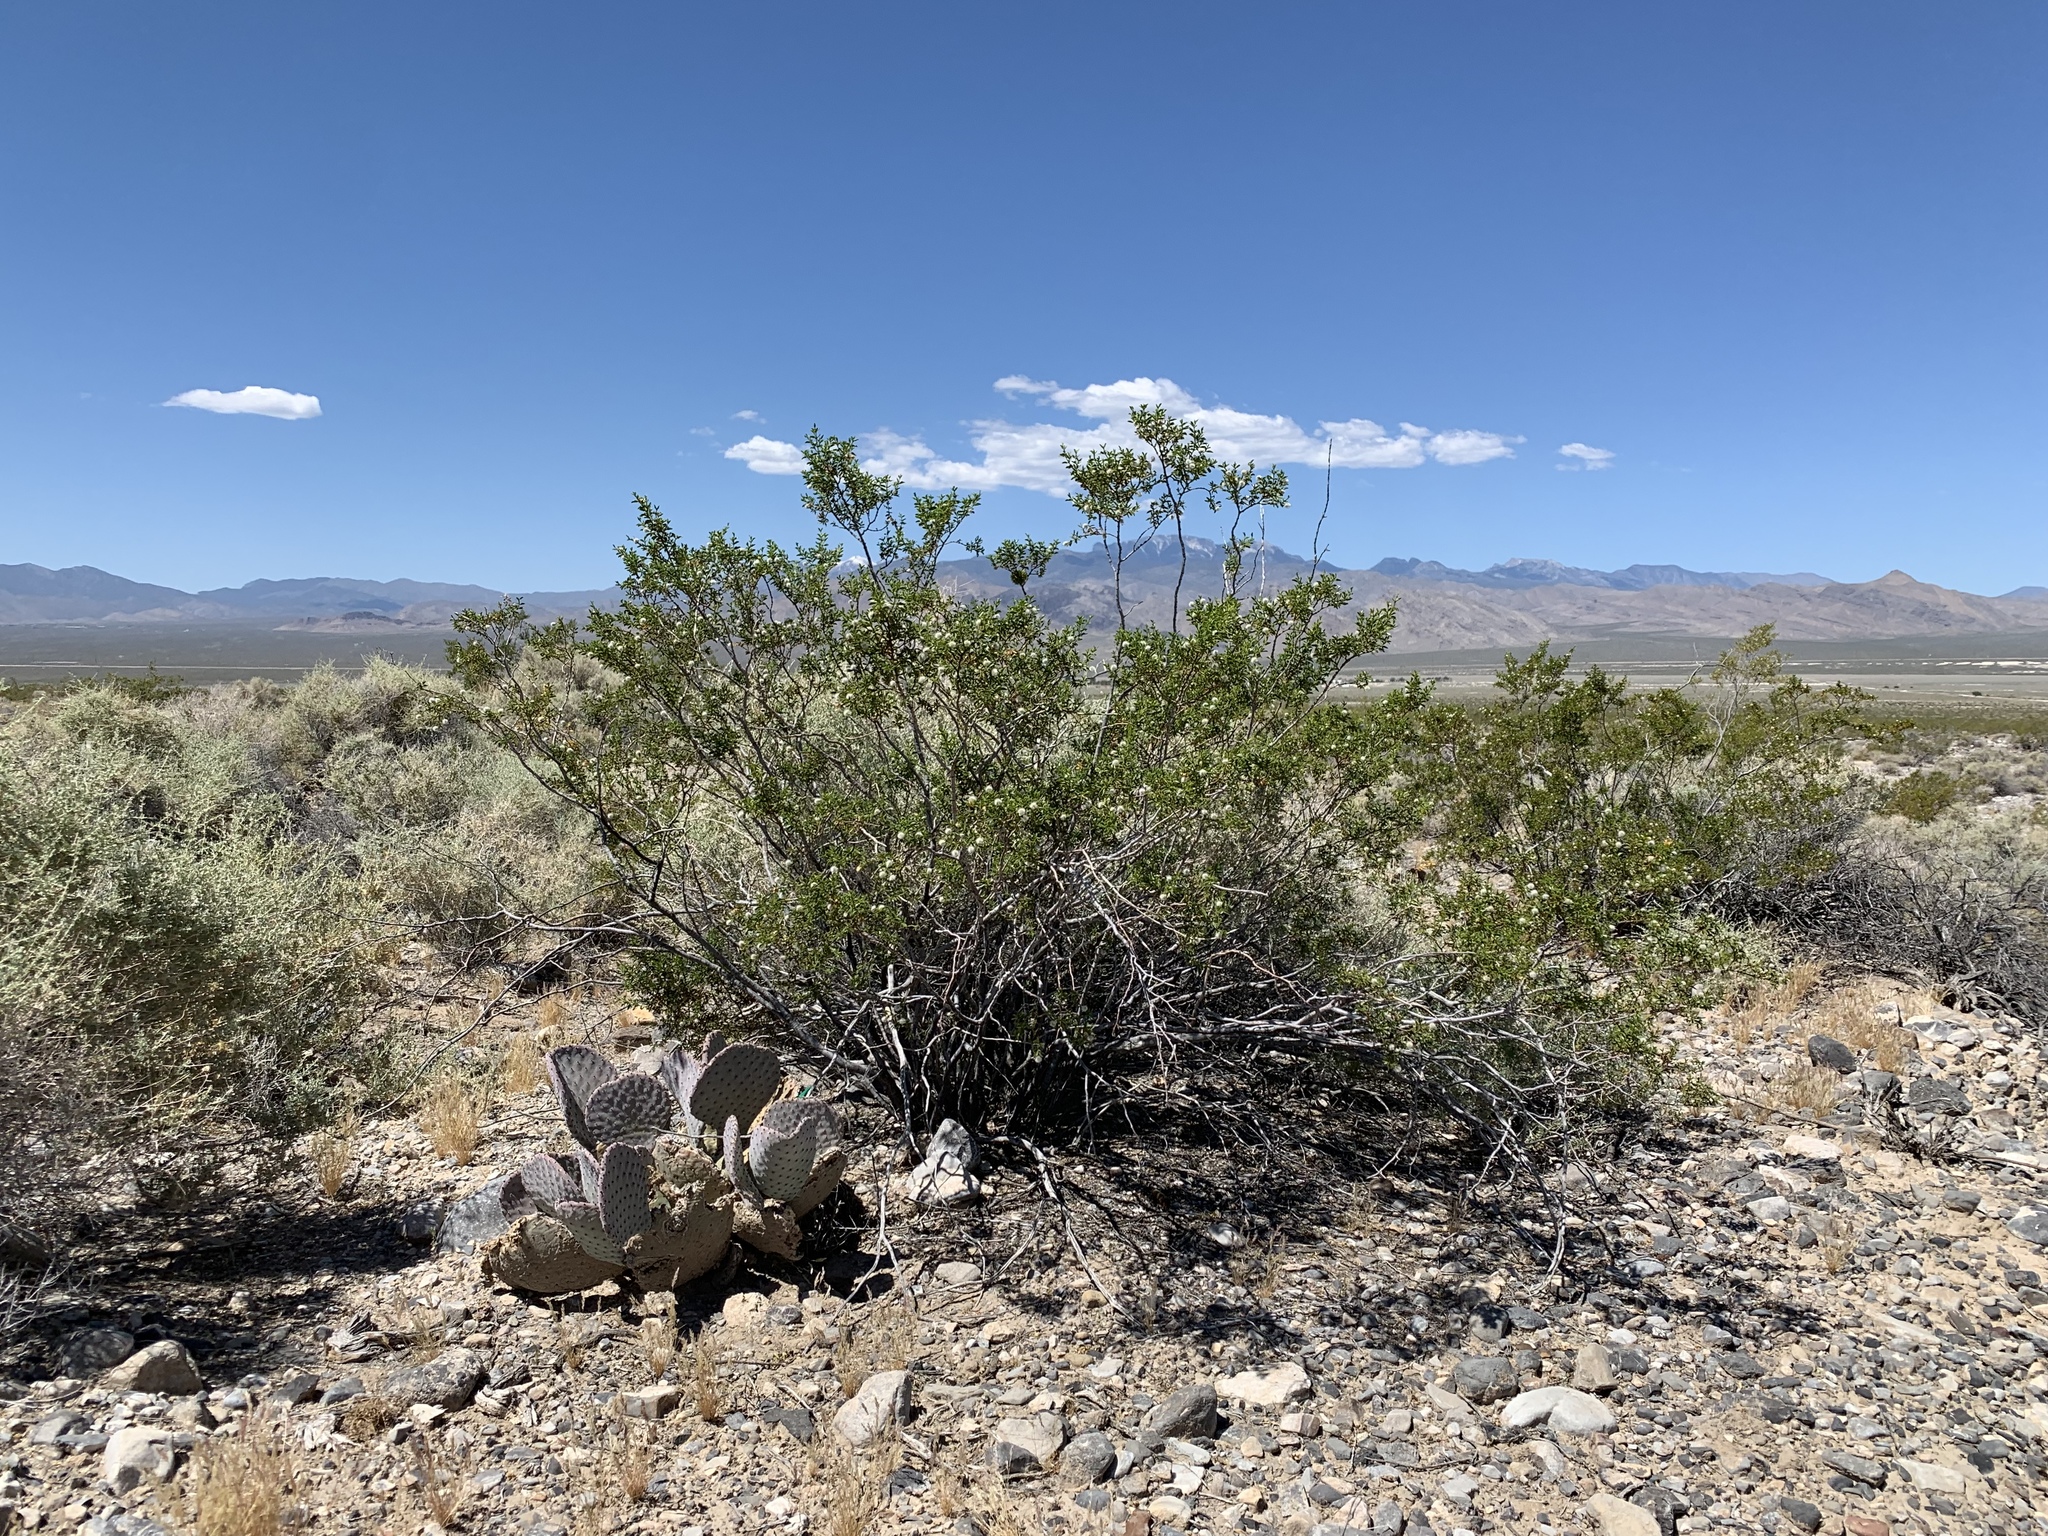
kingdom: Plantae
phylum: Tracheophyta
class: Magnoliopsida
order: Zygophyllales
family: Zygophyllaceae
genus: Larrea
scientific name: Larrea tridentata
